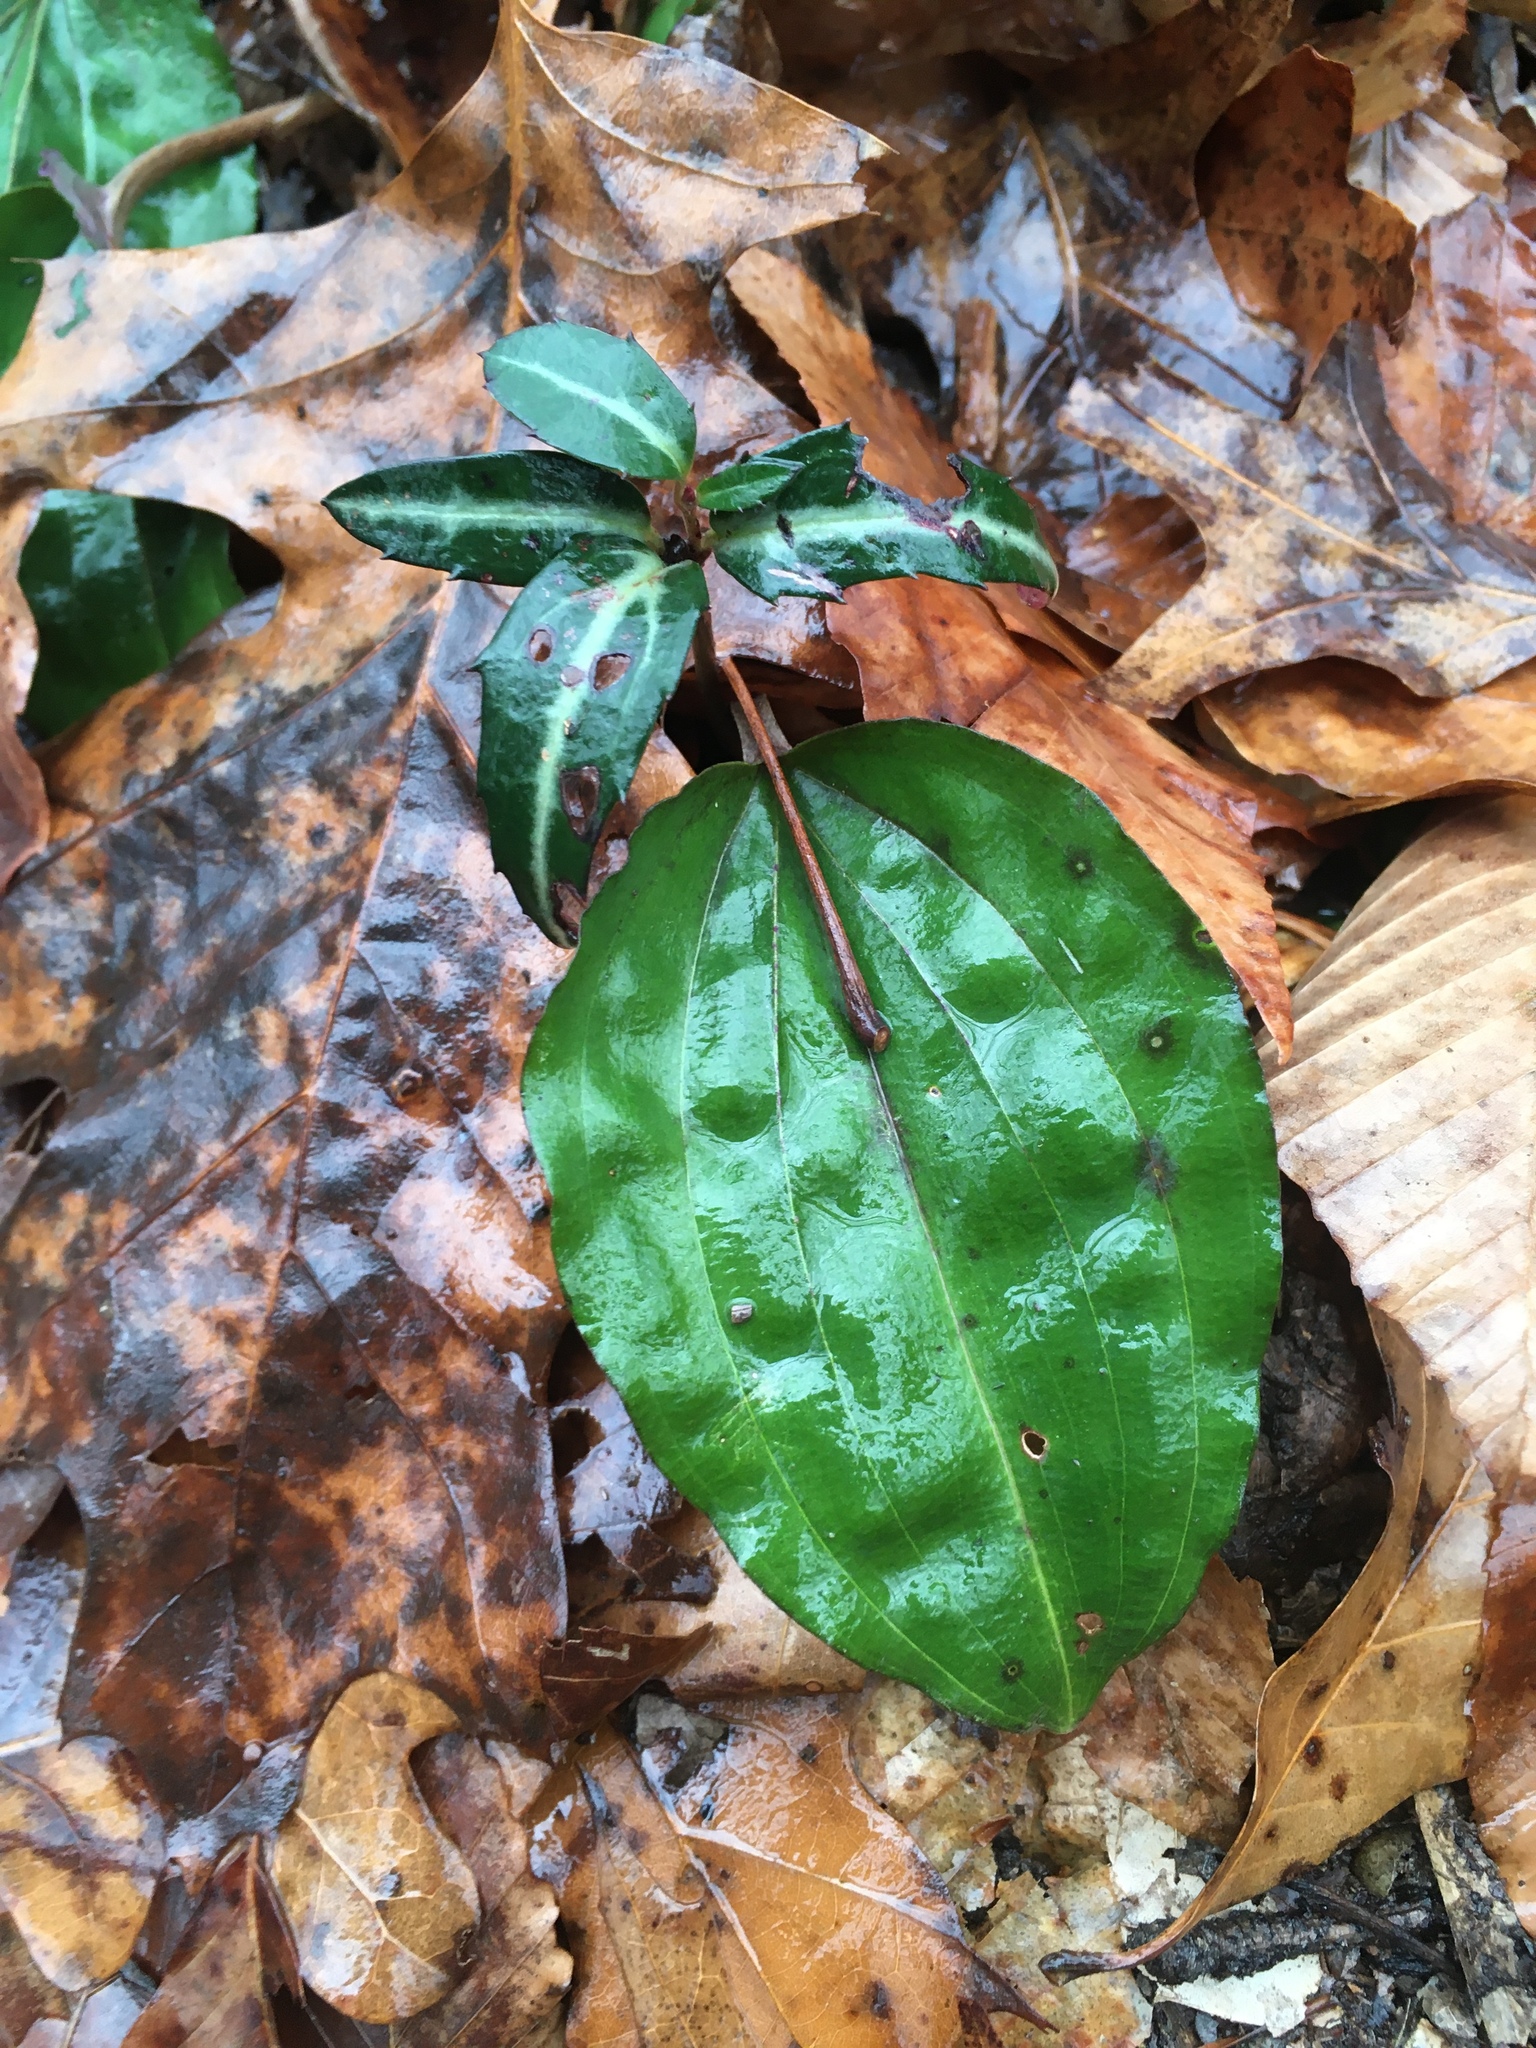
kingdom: Plantae
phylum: Tracheophyta
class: Magnoliopsida
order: Ericales
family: Ericaceae
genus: Chimaphila
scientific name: Chimaphila maculata
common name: Spotted pipsissewa
